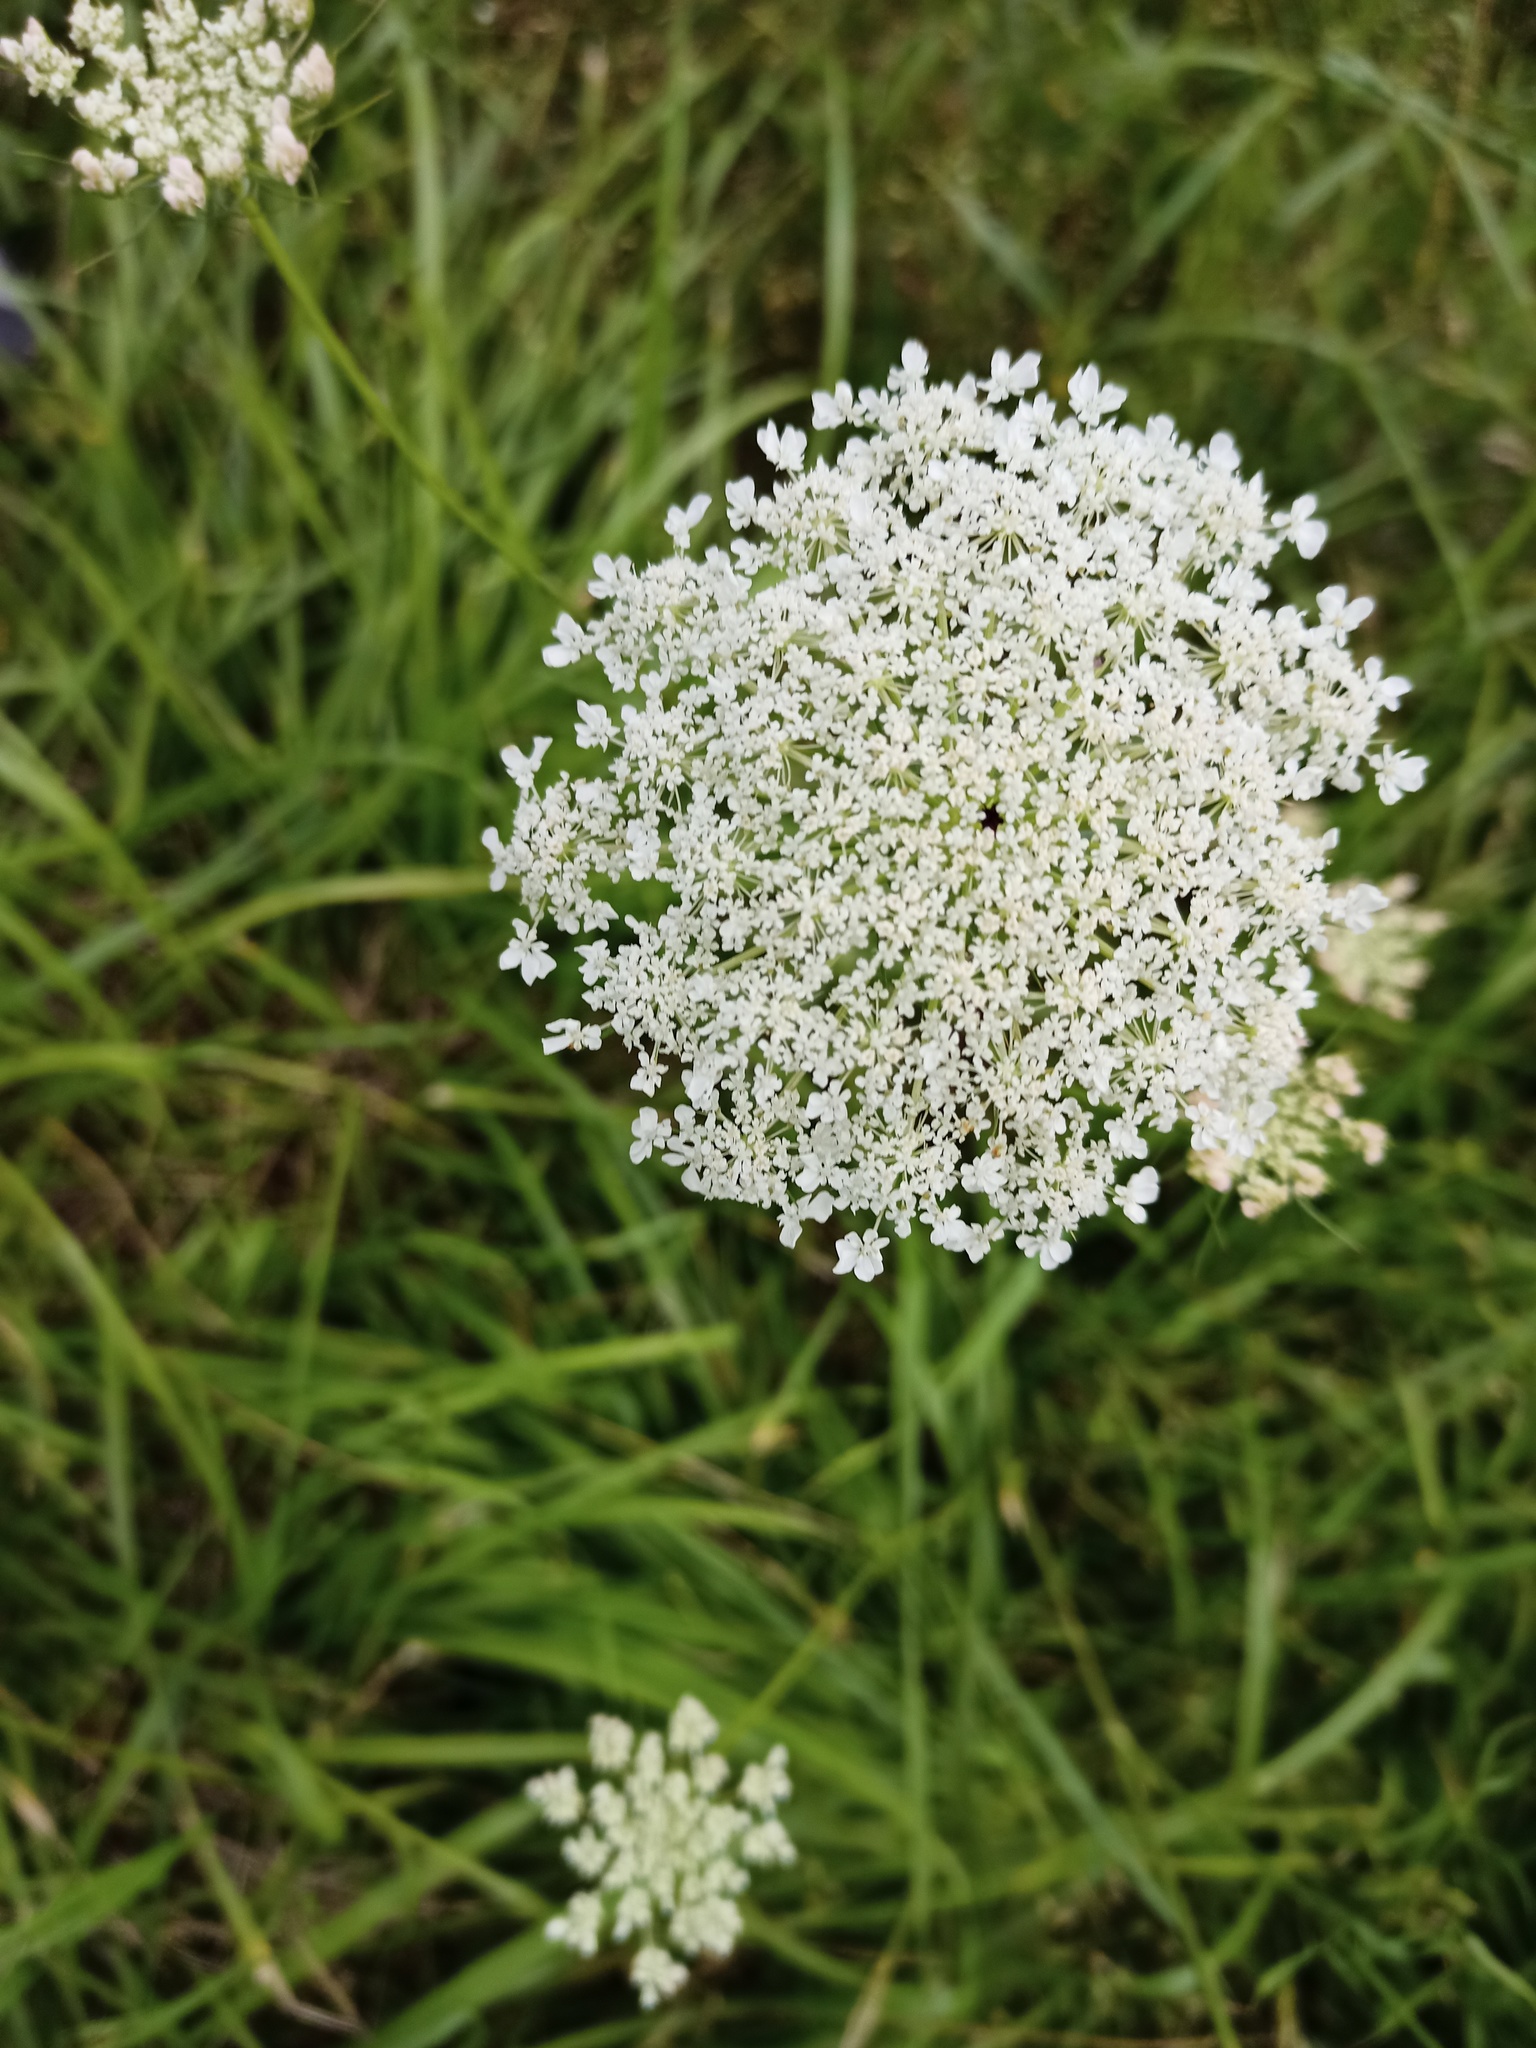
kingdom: Plantae
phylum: Tracheophyta
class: Magnoliopsida
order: Apiales
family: Apiaceae
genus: Daucus
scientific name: Daucus carota
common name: Wild carrot
